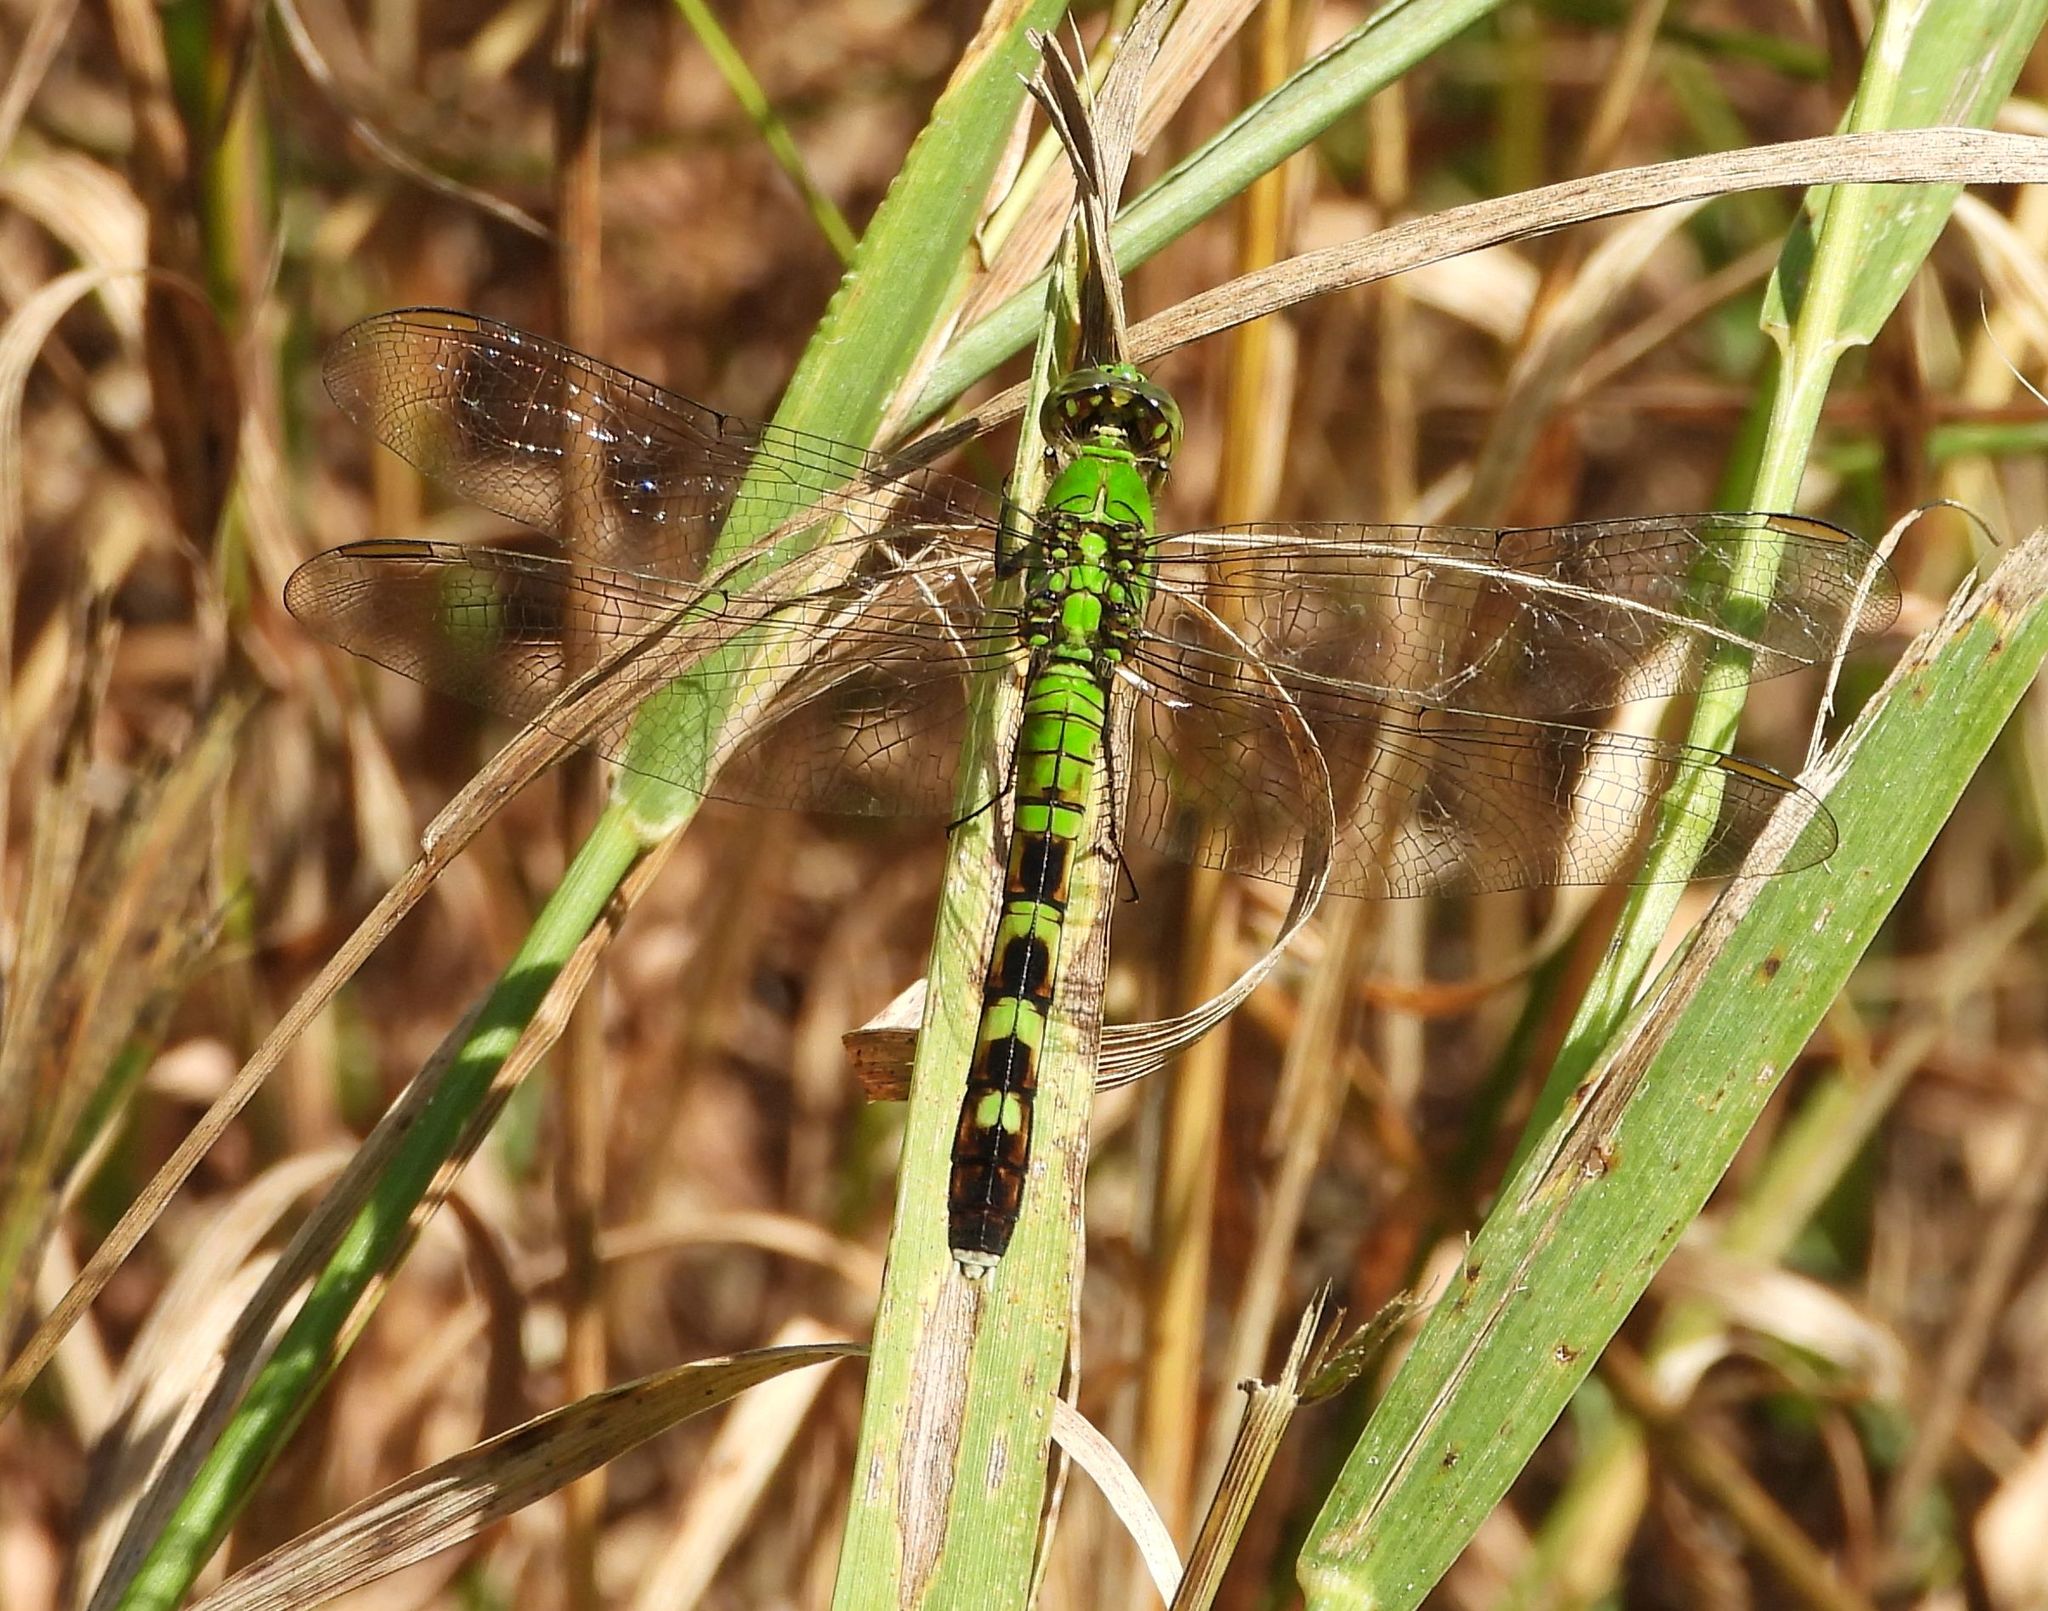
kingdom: Animalia
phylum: Arthropoda
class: Insecta
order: Odonata
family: Libellulidae
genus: Erythemis
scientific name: Erythemis simplicicollis
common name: Eastern pondhawk
